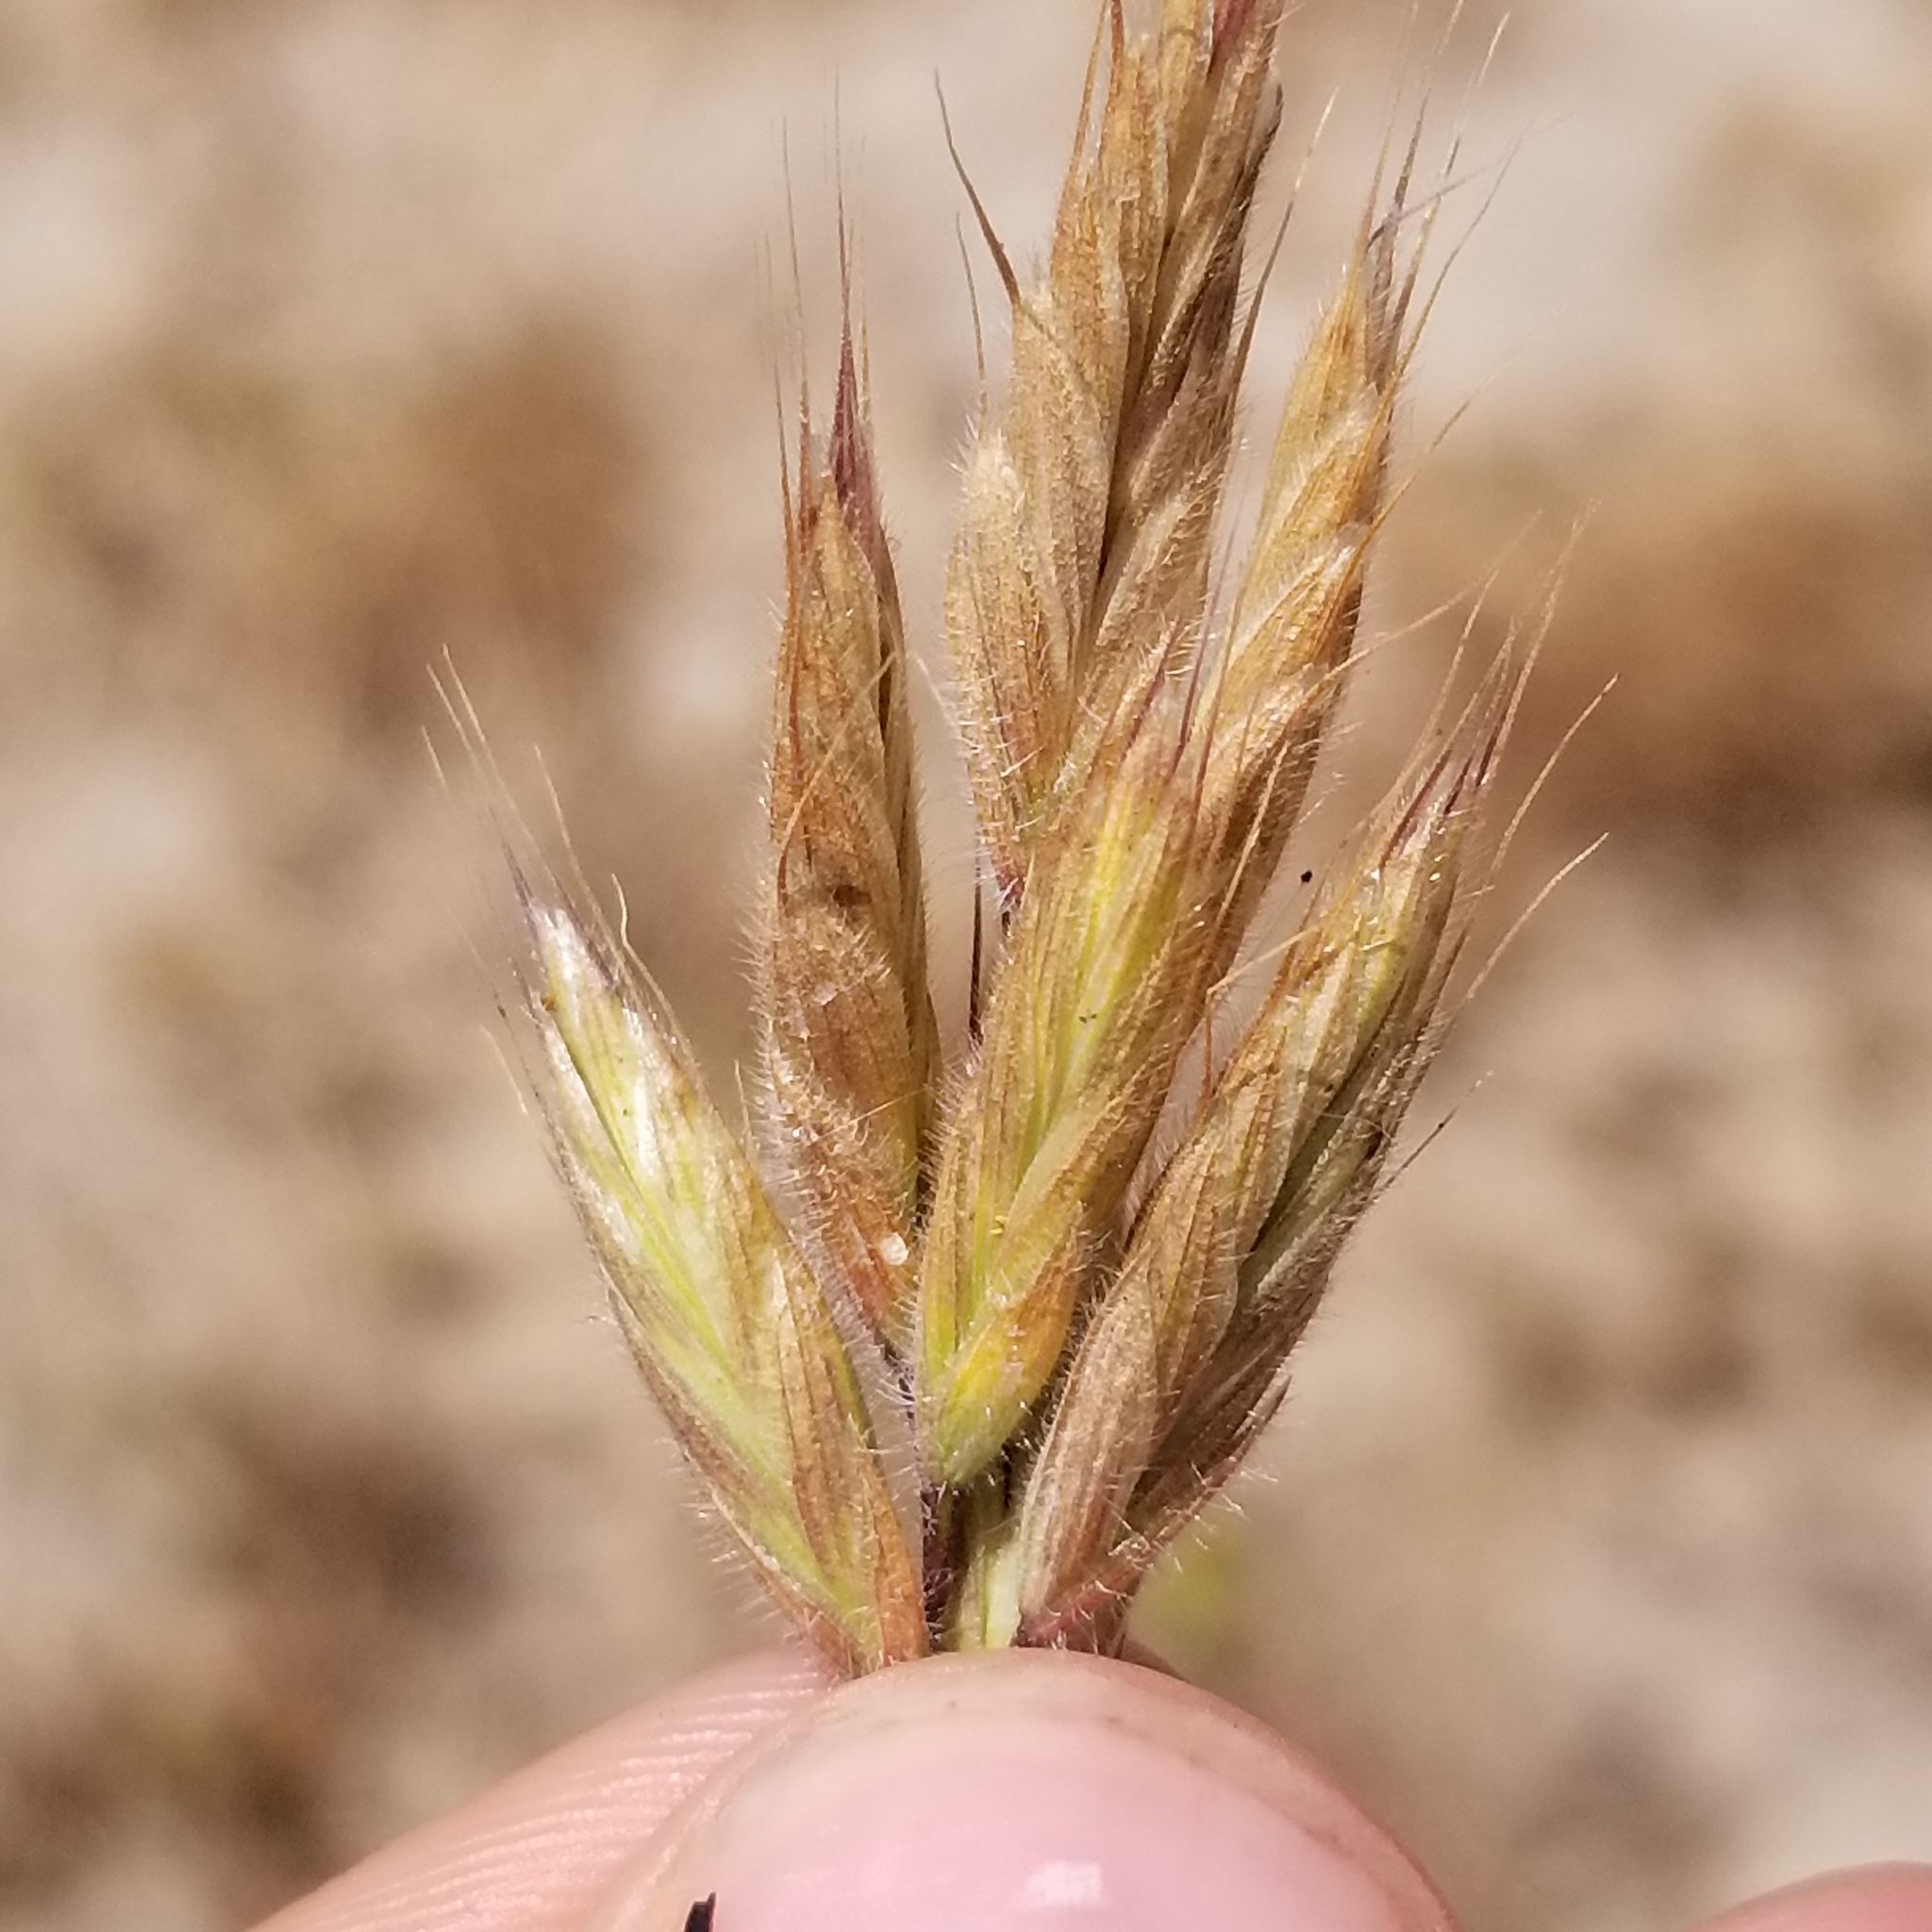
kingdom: Plantae
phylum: Tracheophyta
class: Liliopsida
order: Poales
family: Poaceae
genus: Bromus
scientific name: Bromus hordeaceus
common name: Soft brome
